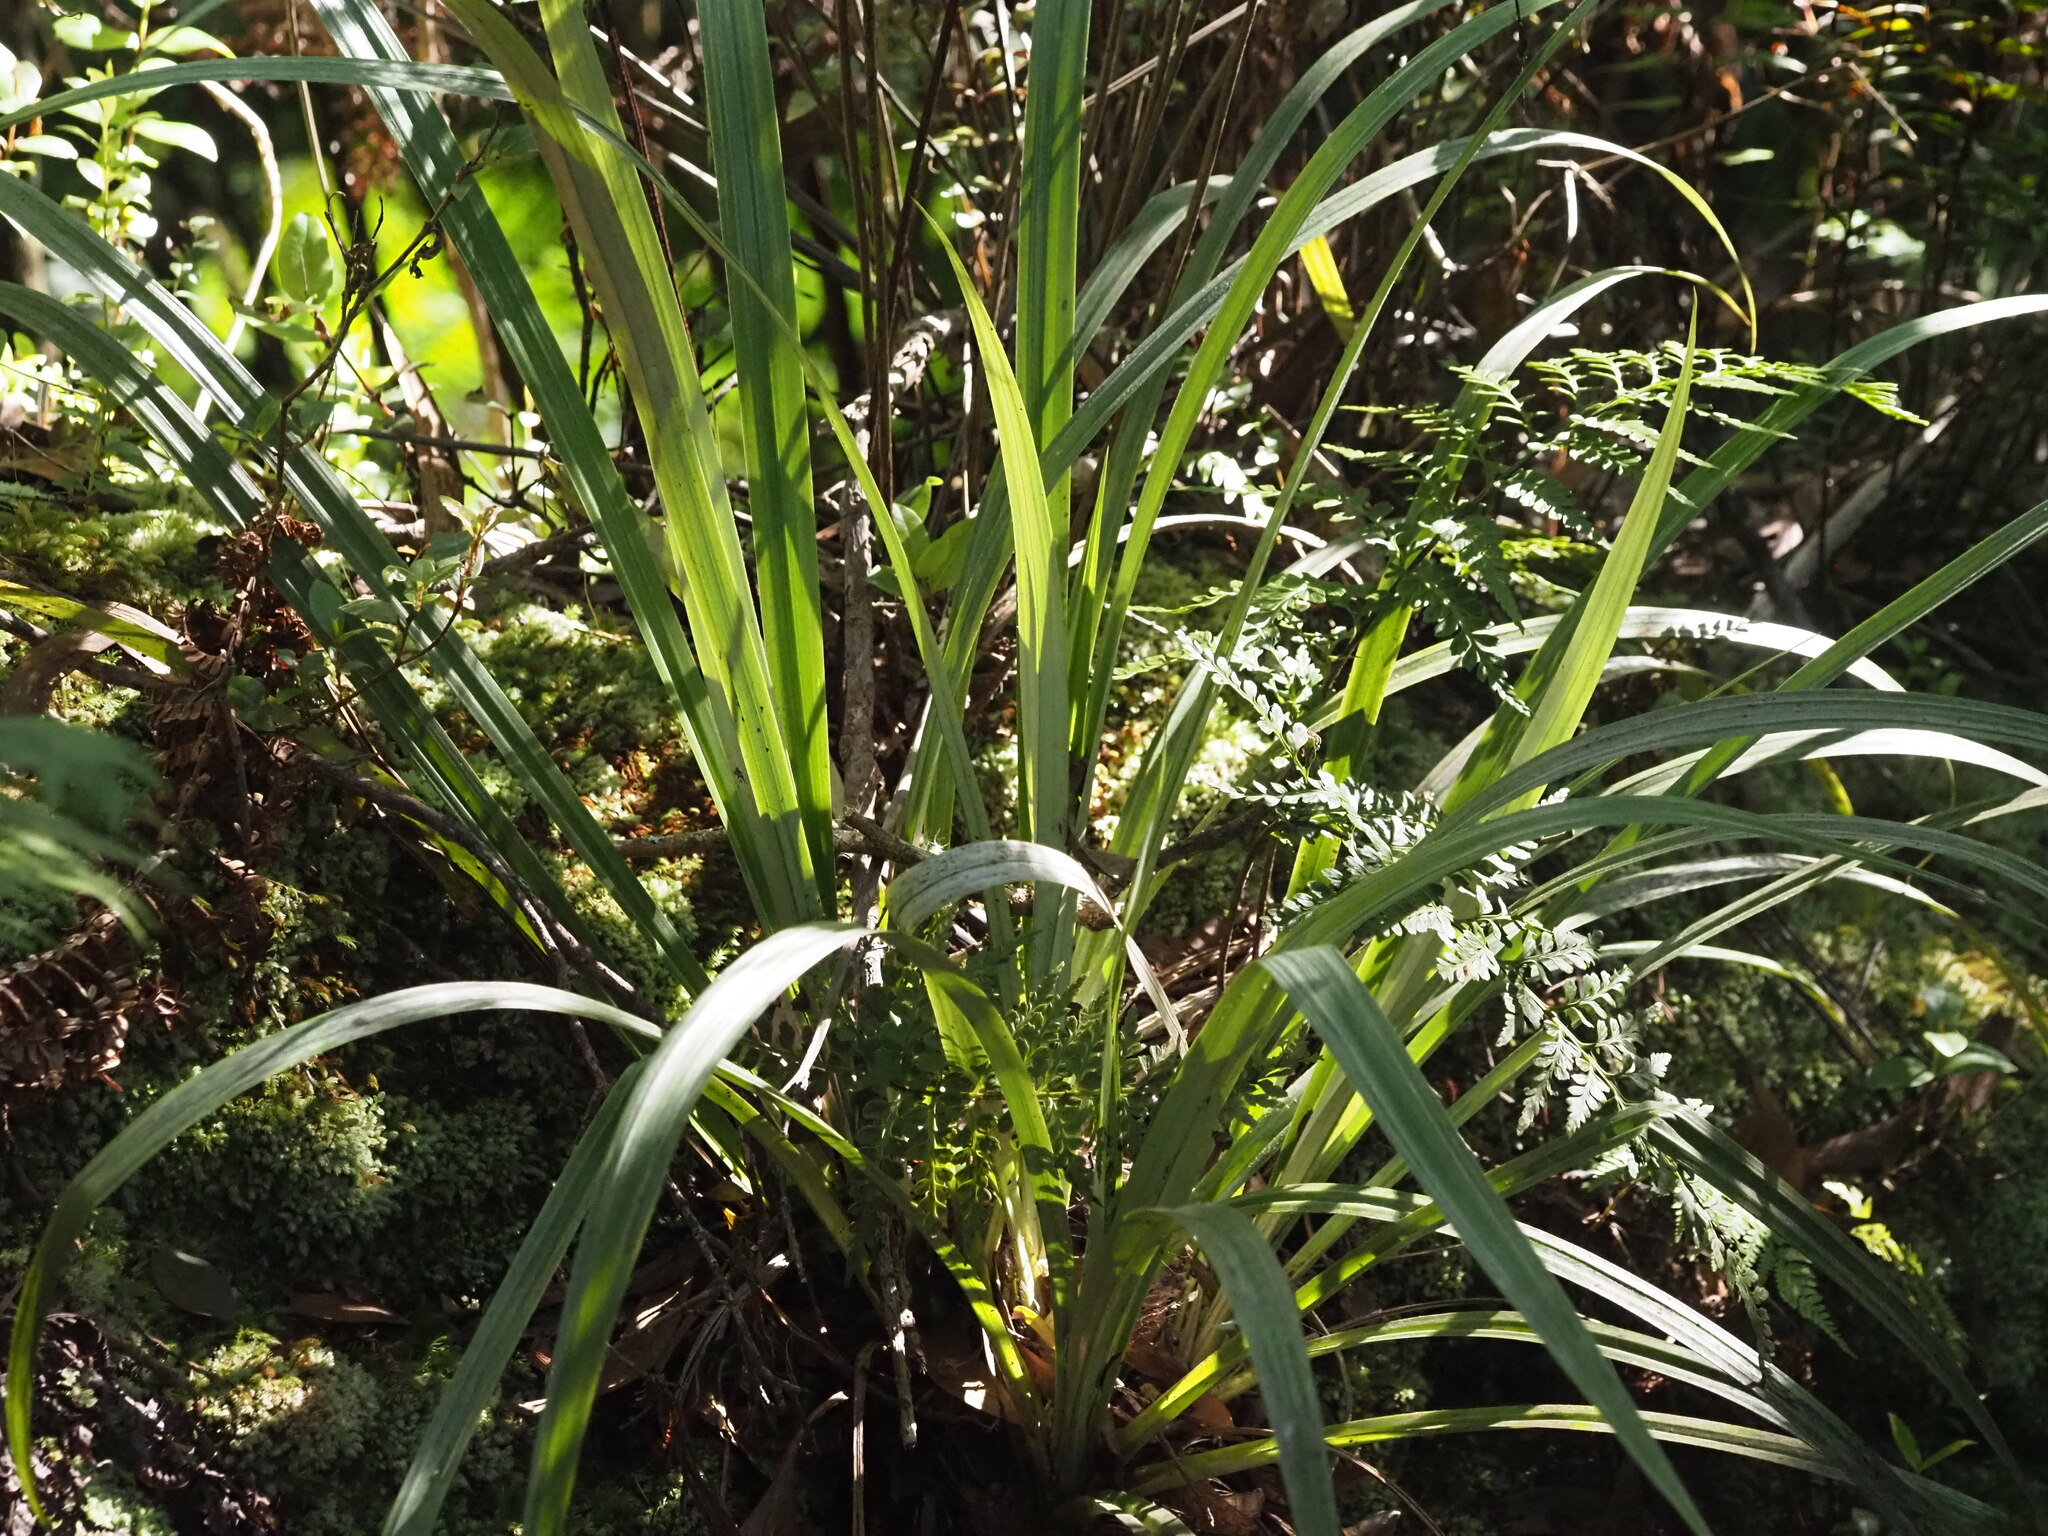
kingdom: Plantae
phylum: Tracheophyta
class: Liliopsida
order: Asparagales
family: Asteliaceae
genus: Astelia
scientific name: Astelia menziesiana
